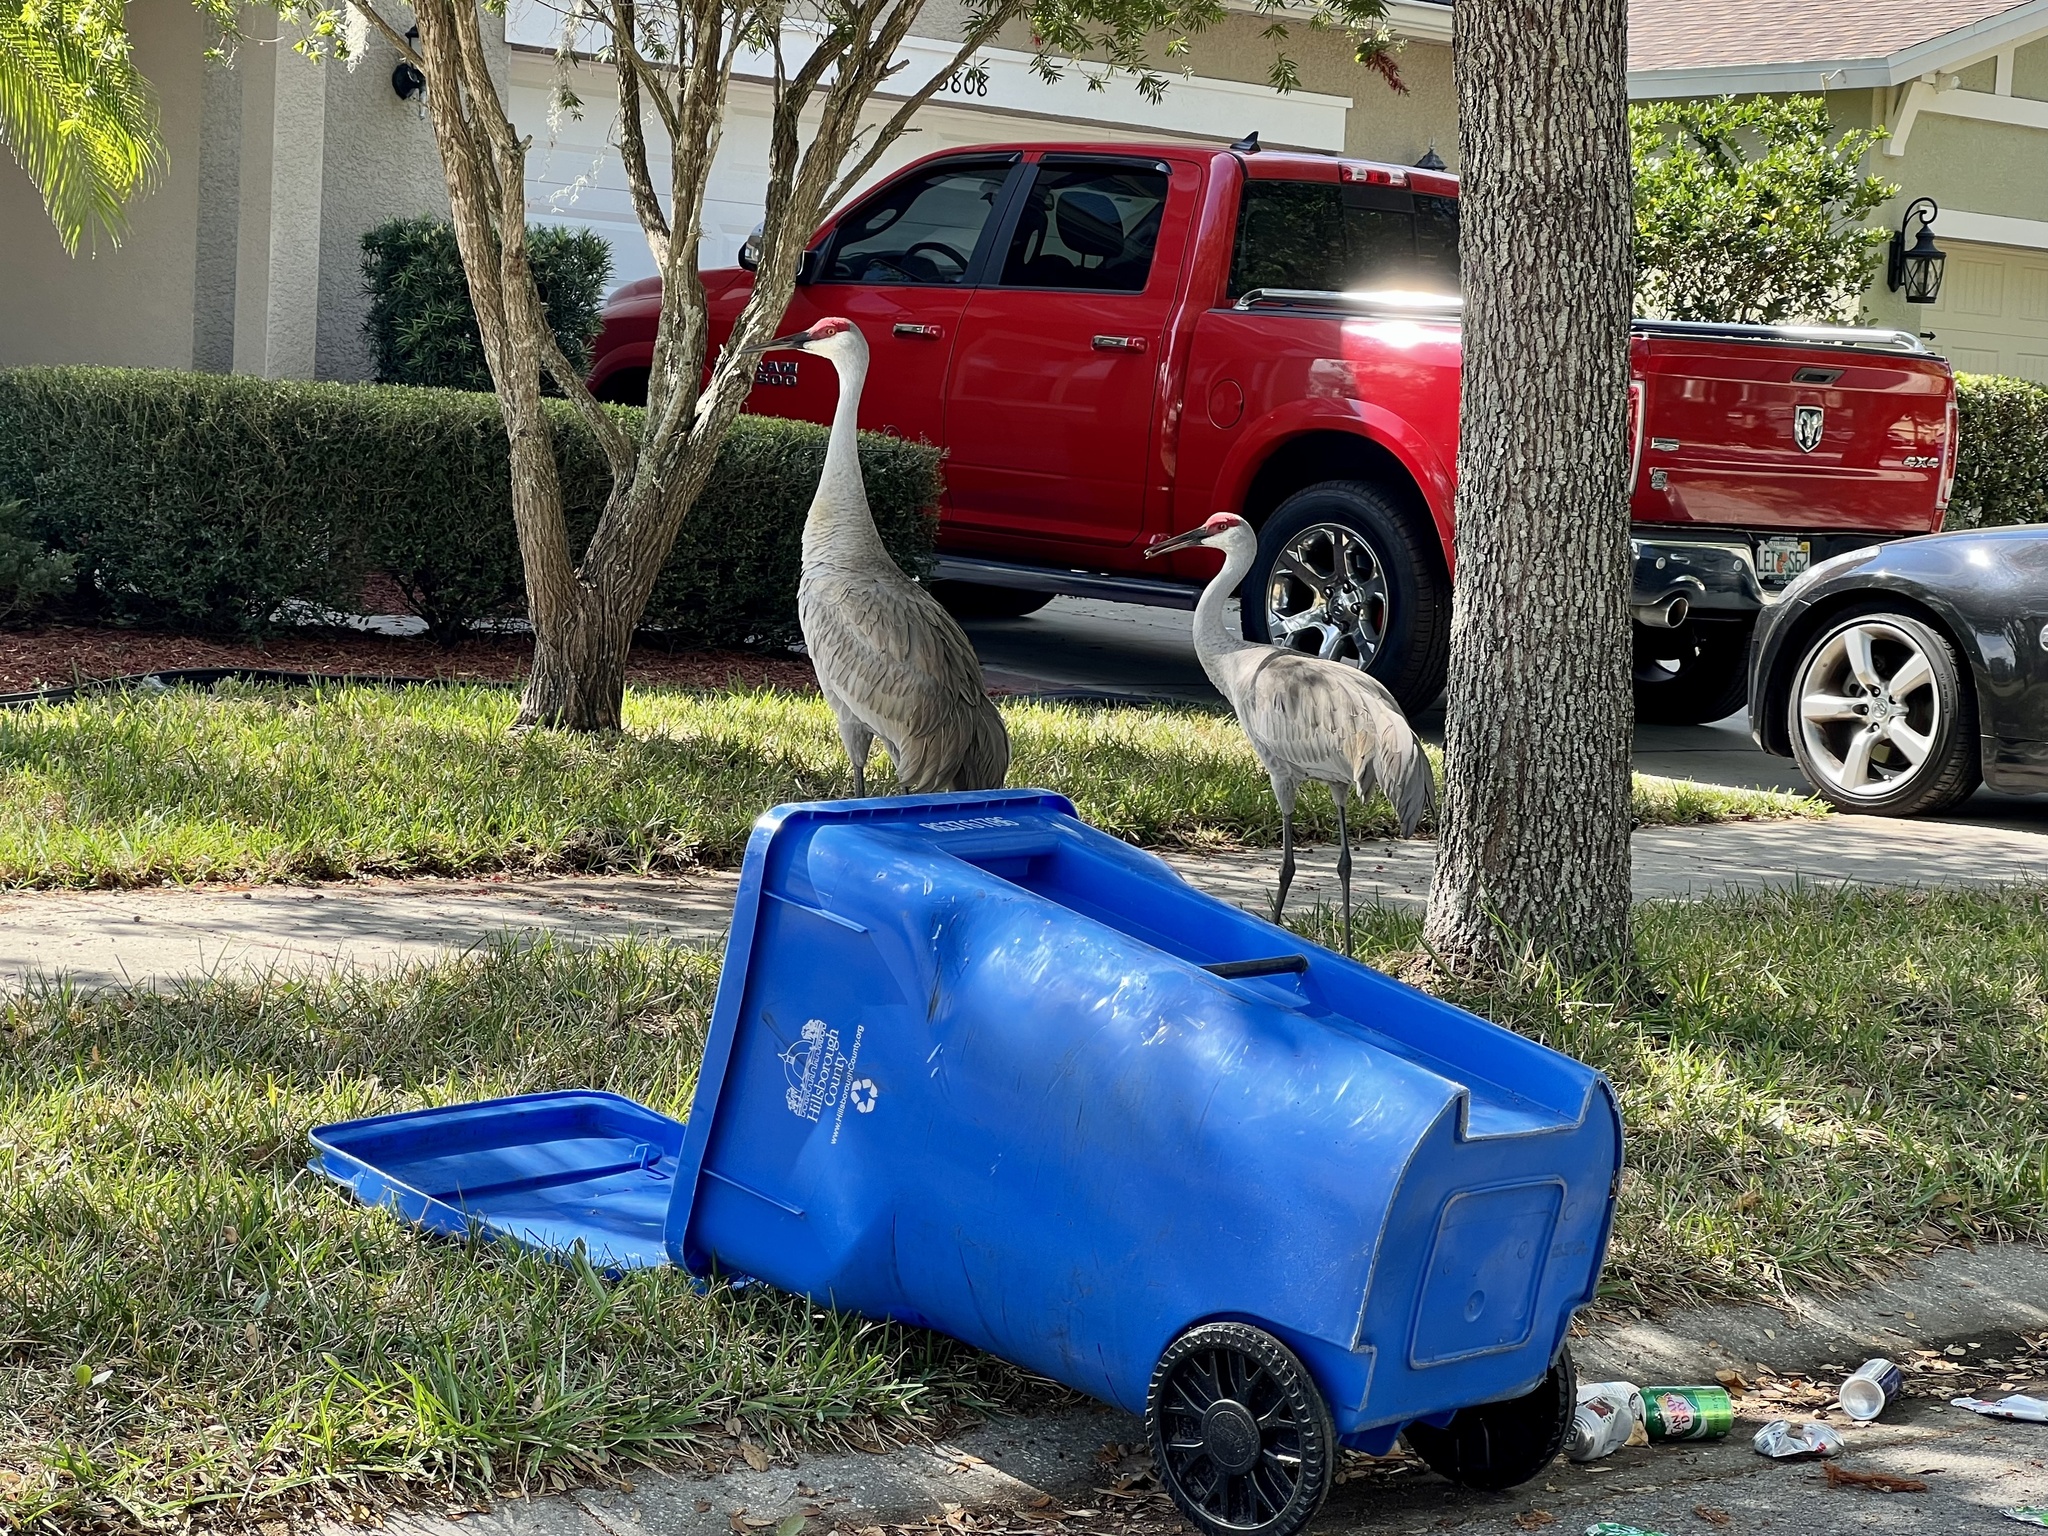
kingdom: Animalia
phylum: Chordata
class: Aves
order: Gruiformes
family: Gruidae
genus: Grus
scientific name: Grus canadensis
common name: Sandhill crane
